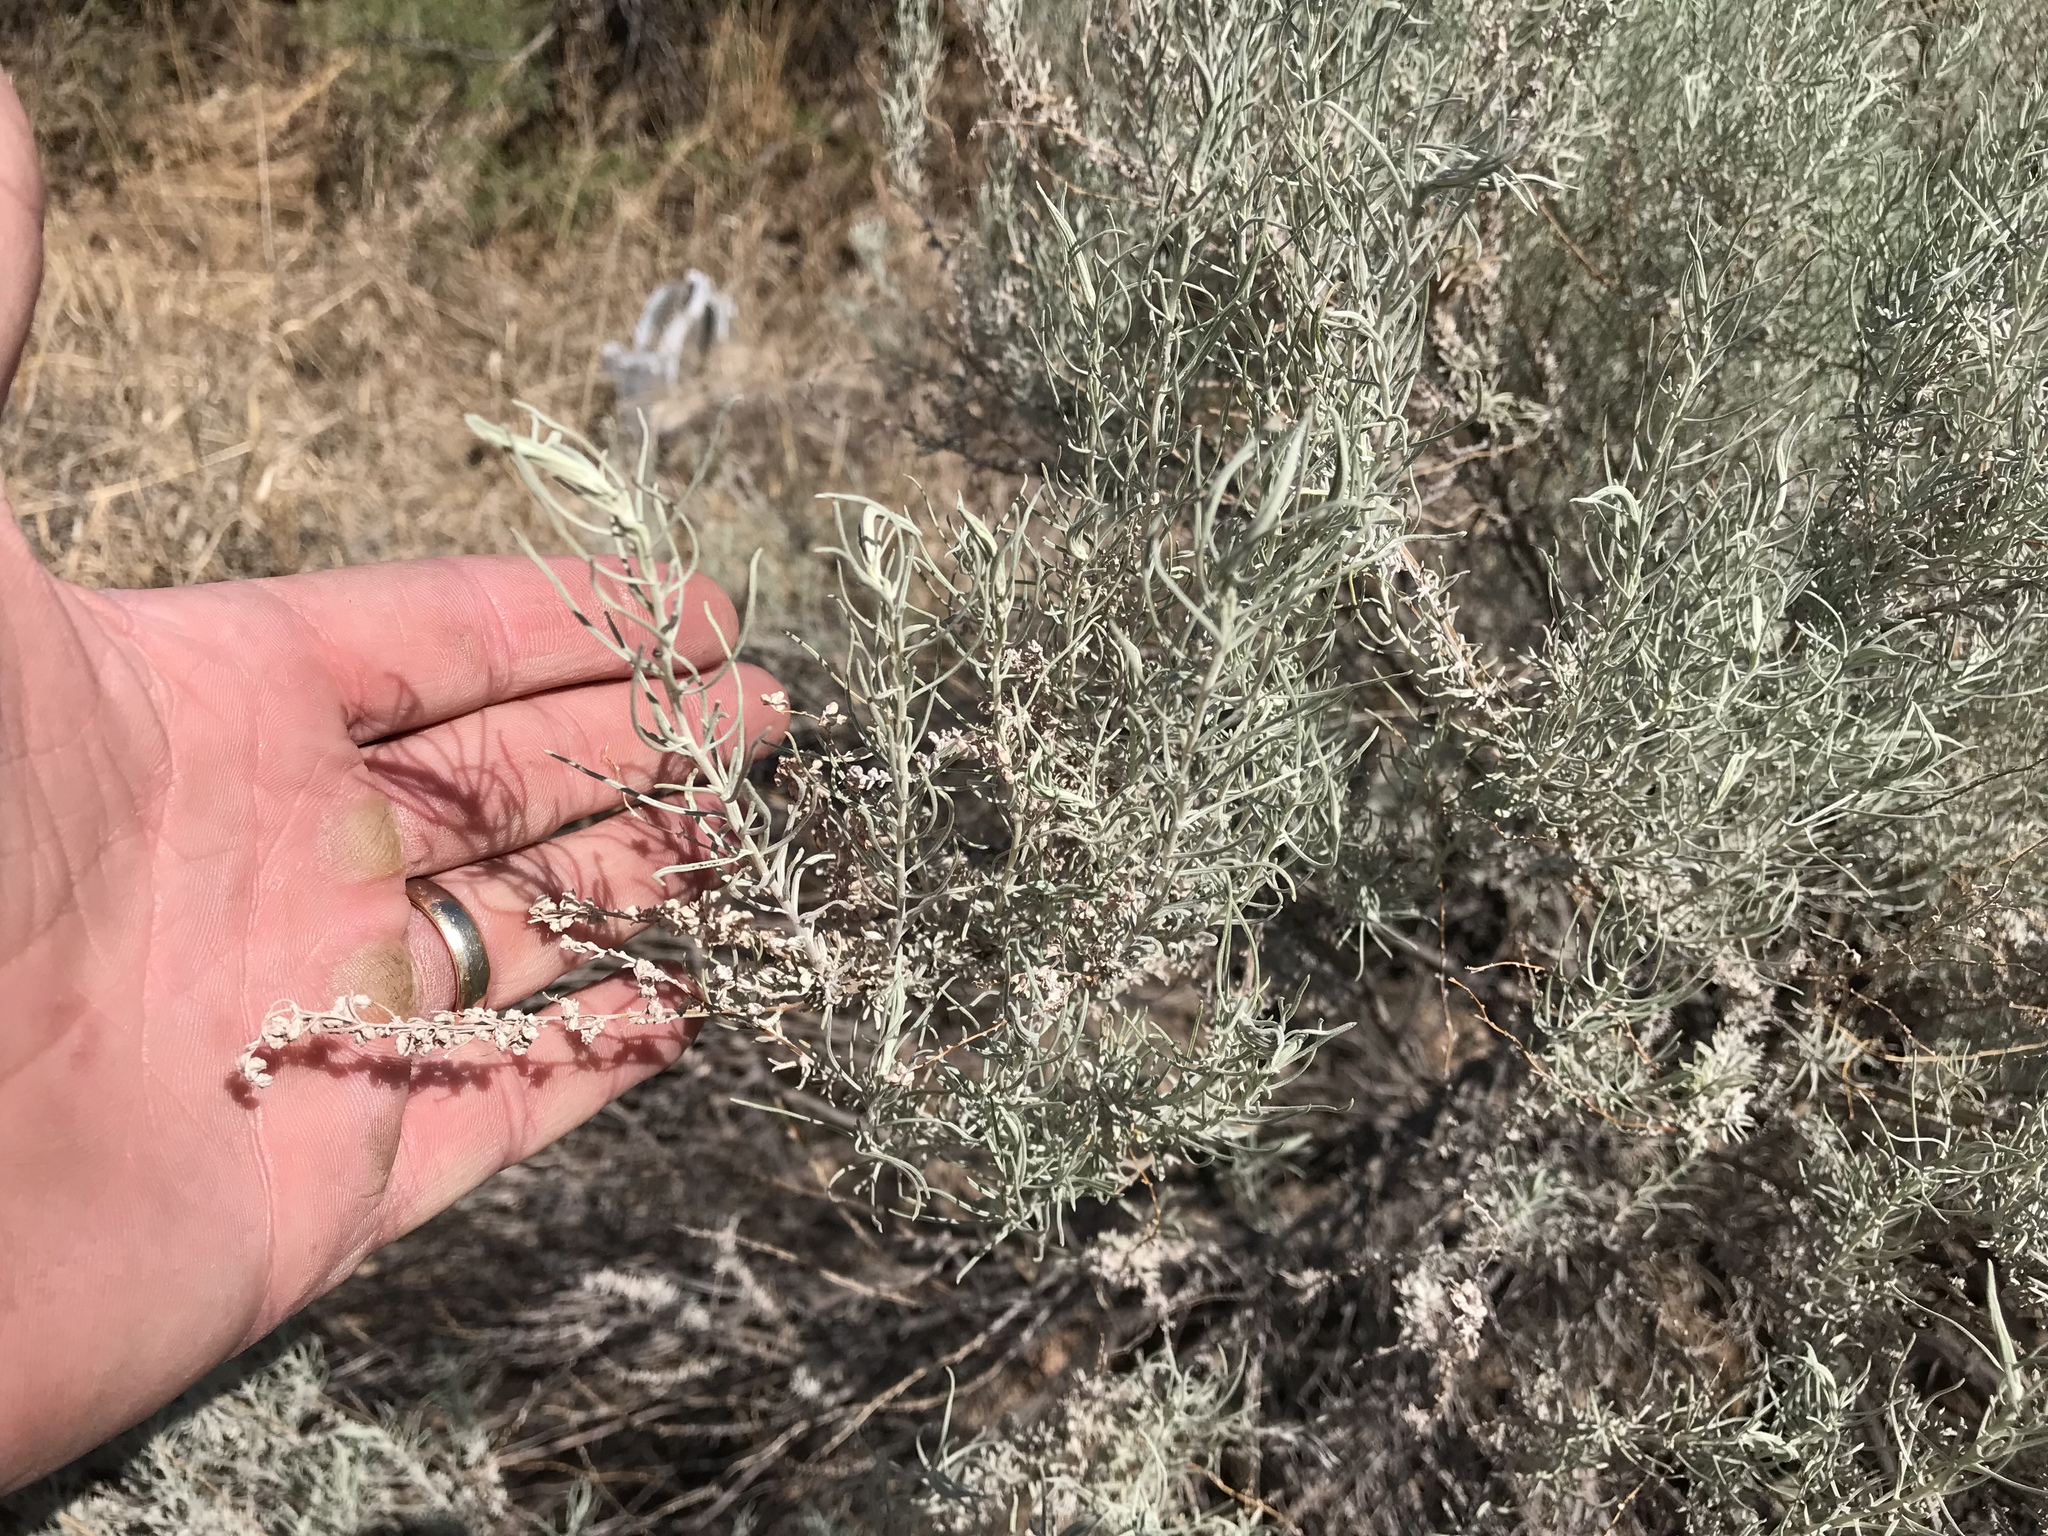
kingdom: Plantae
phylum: Tracheophyta
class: Magnoliopsida
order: Asterales
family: Asteraceae
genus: Artemisia
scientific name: Artemisia filifolia
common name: Sand-sage
